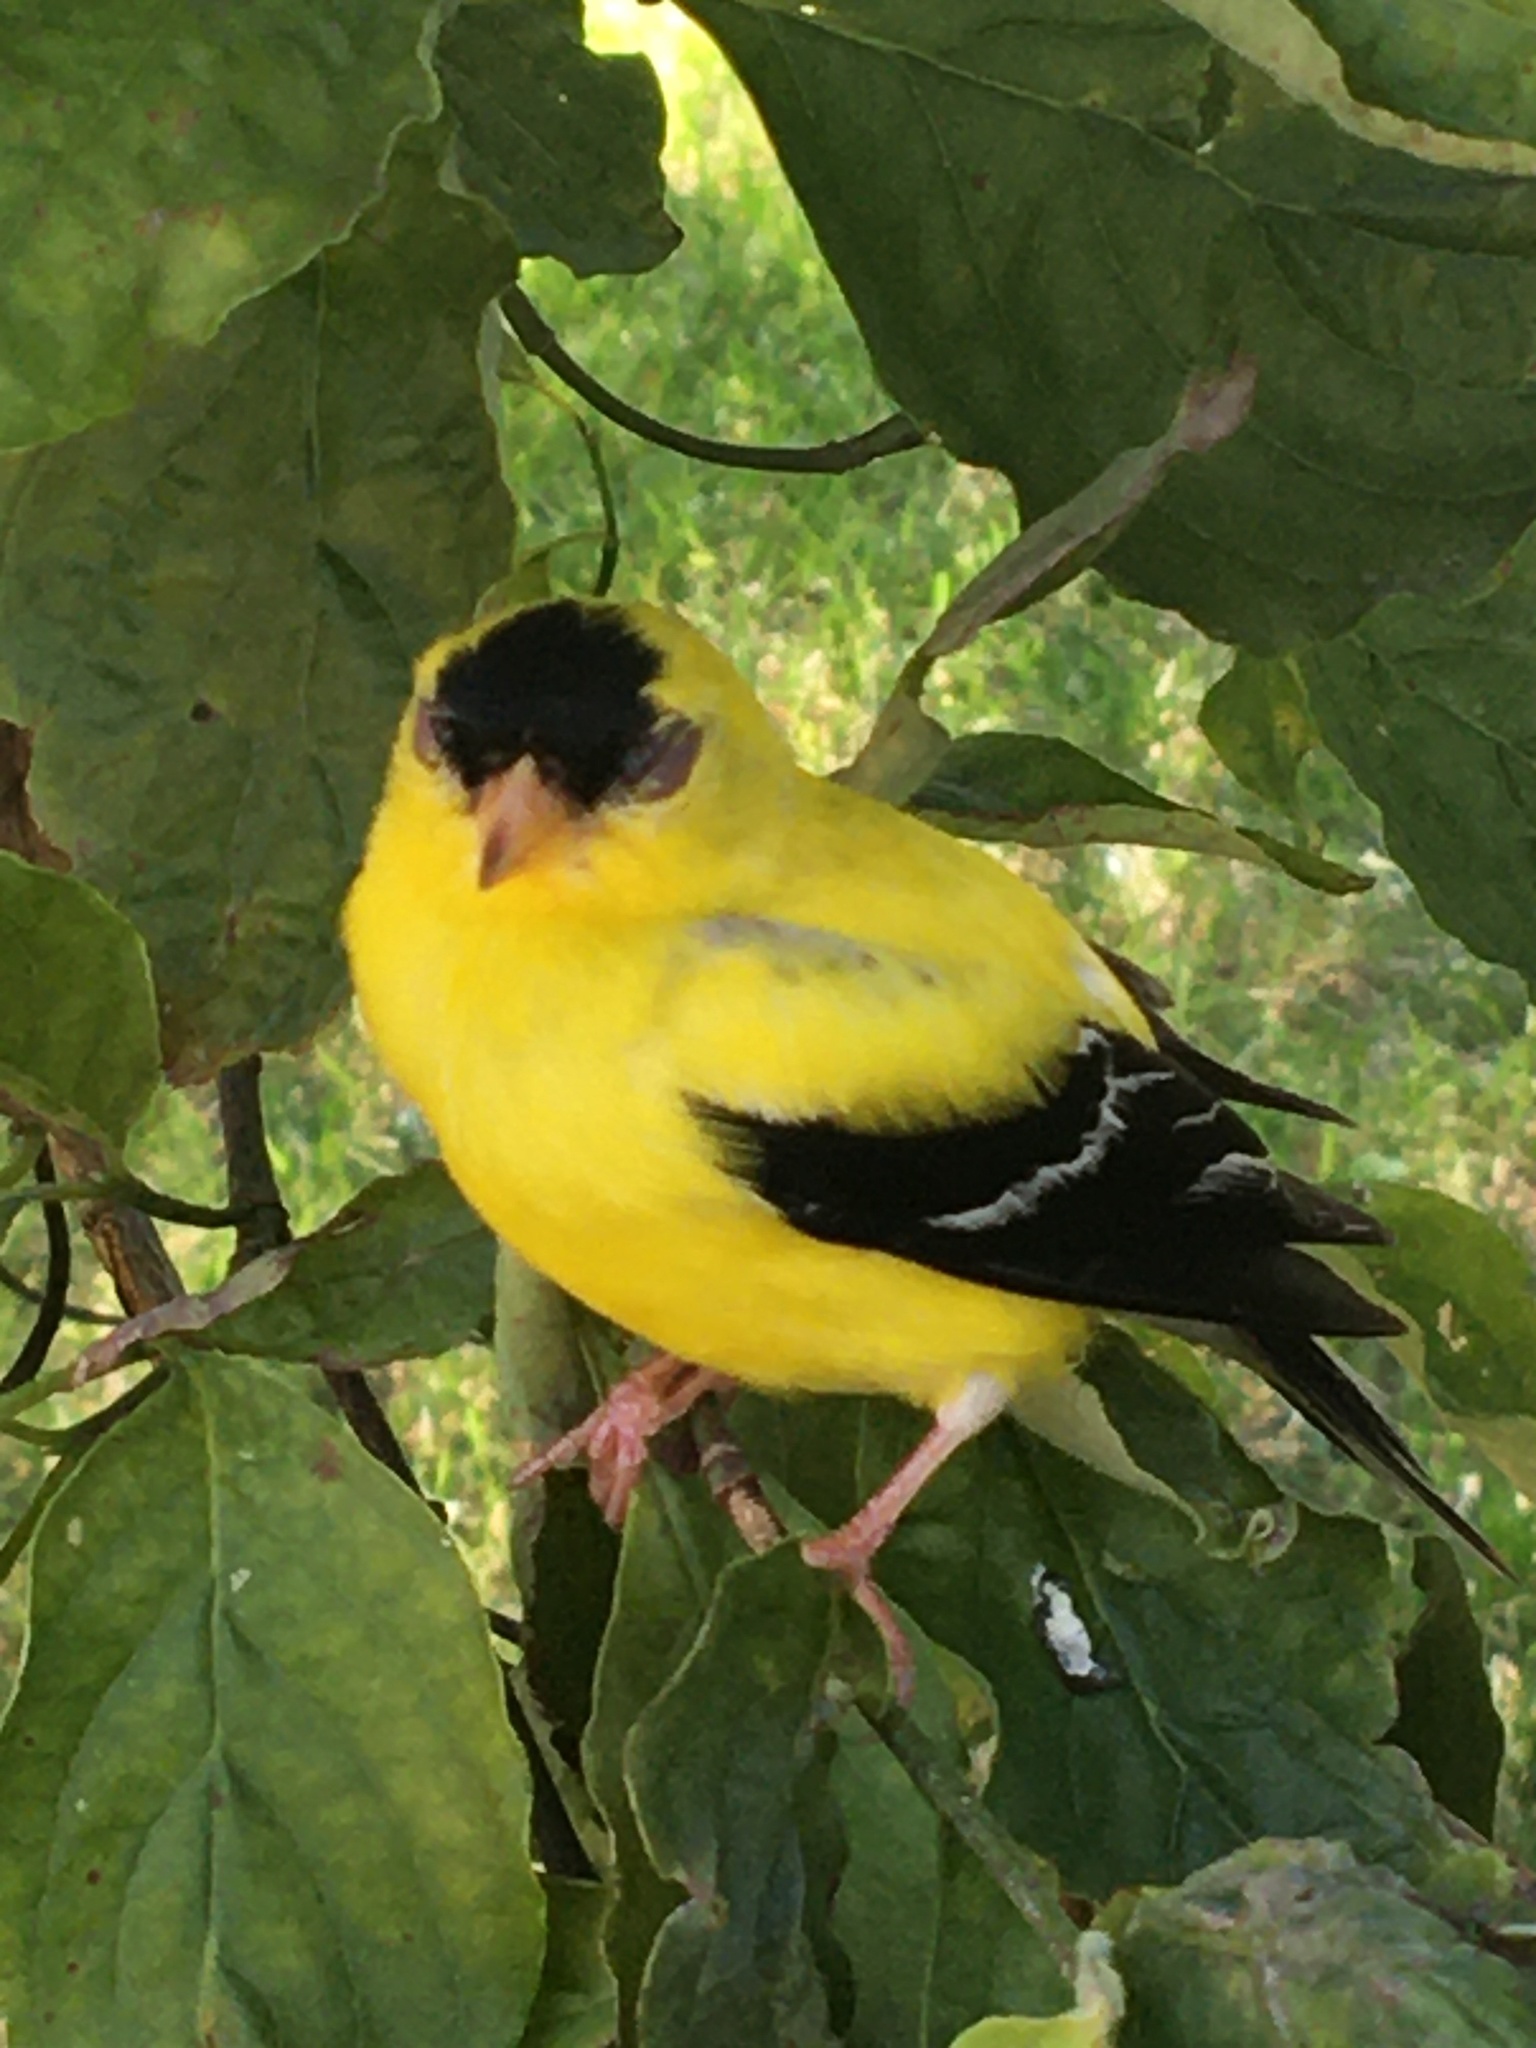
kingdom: Animalia
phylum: Chordata
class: Aves
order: Passeriformes
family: Fringillidae
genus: Spinus
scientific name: Spinus tristis
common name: American goldfinch
